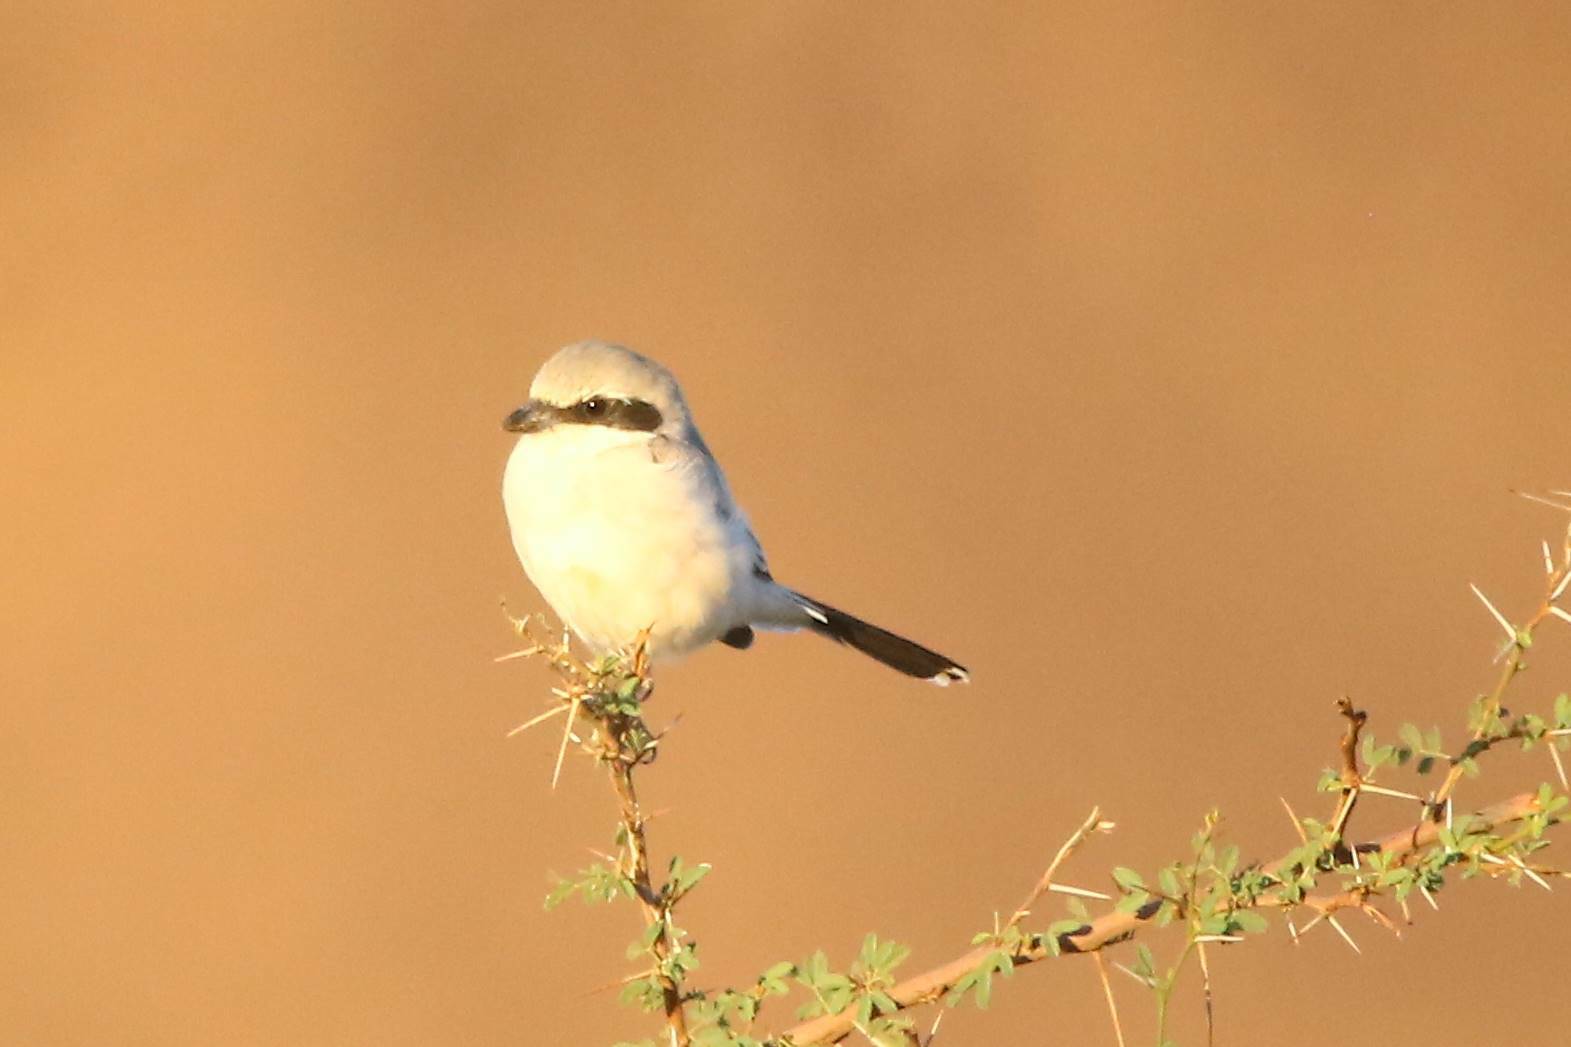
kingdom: Animalia
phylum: Chordata
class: Aves
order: Passeriformes
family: Laniidae
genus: Lanius
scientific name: Lanius excubitor
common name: Great grey shrike
